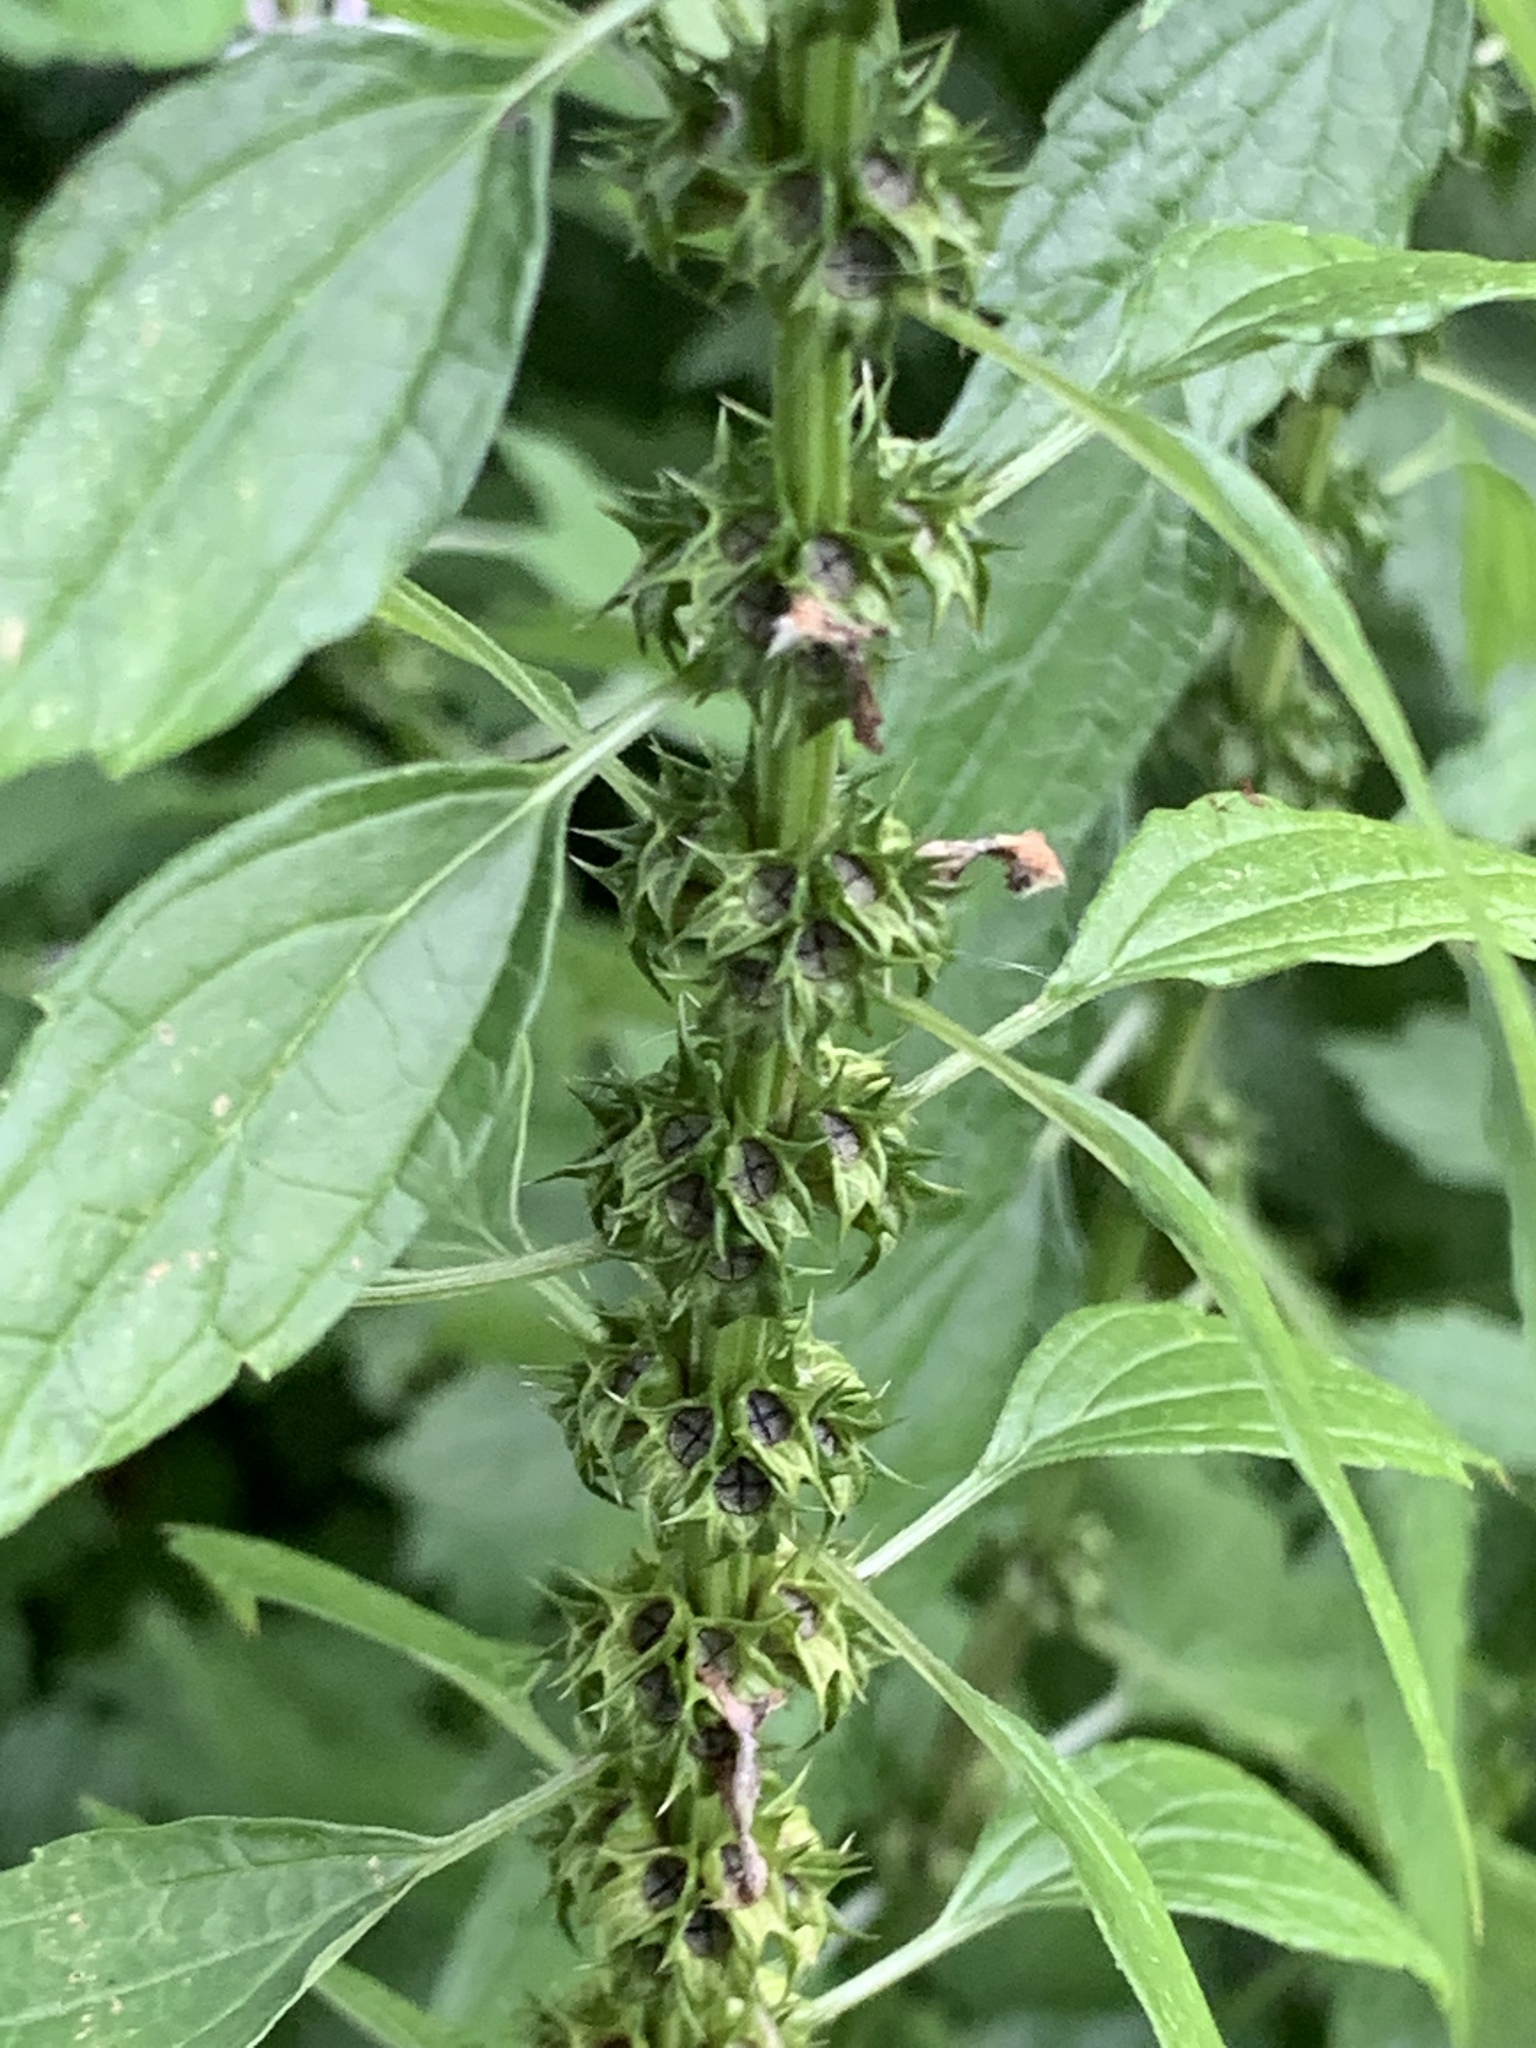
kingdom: Plantae
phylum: Tracheophyta
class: Magnoliopsida
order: Lamiales
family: Lamiaceae
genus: Leonurus
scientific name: Leonurus cardiaca
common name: Motherwort
